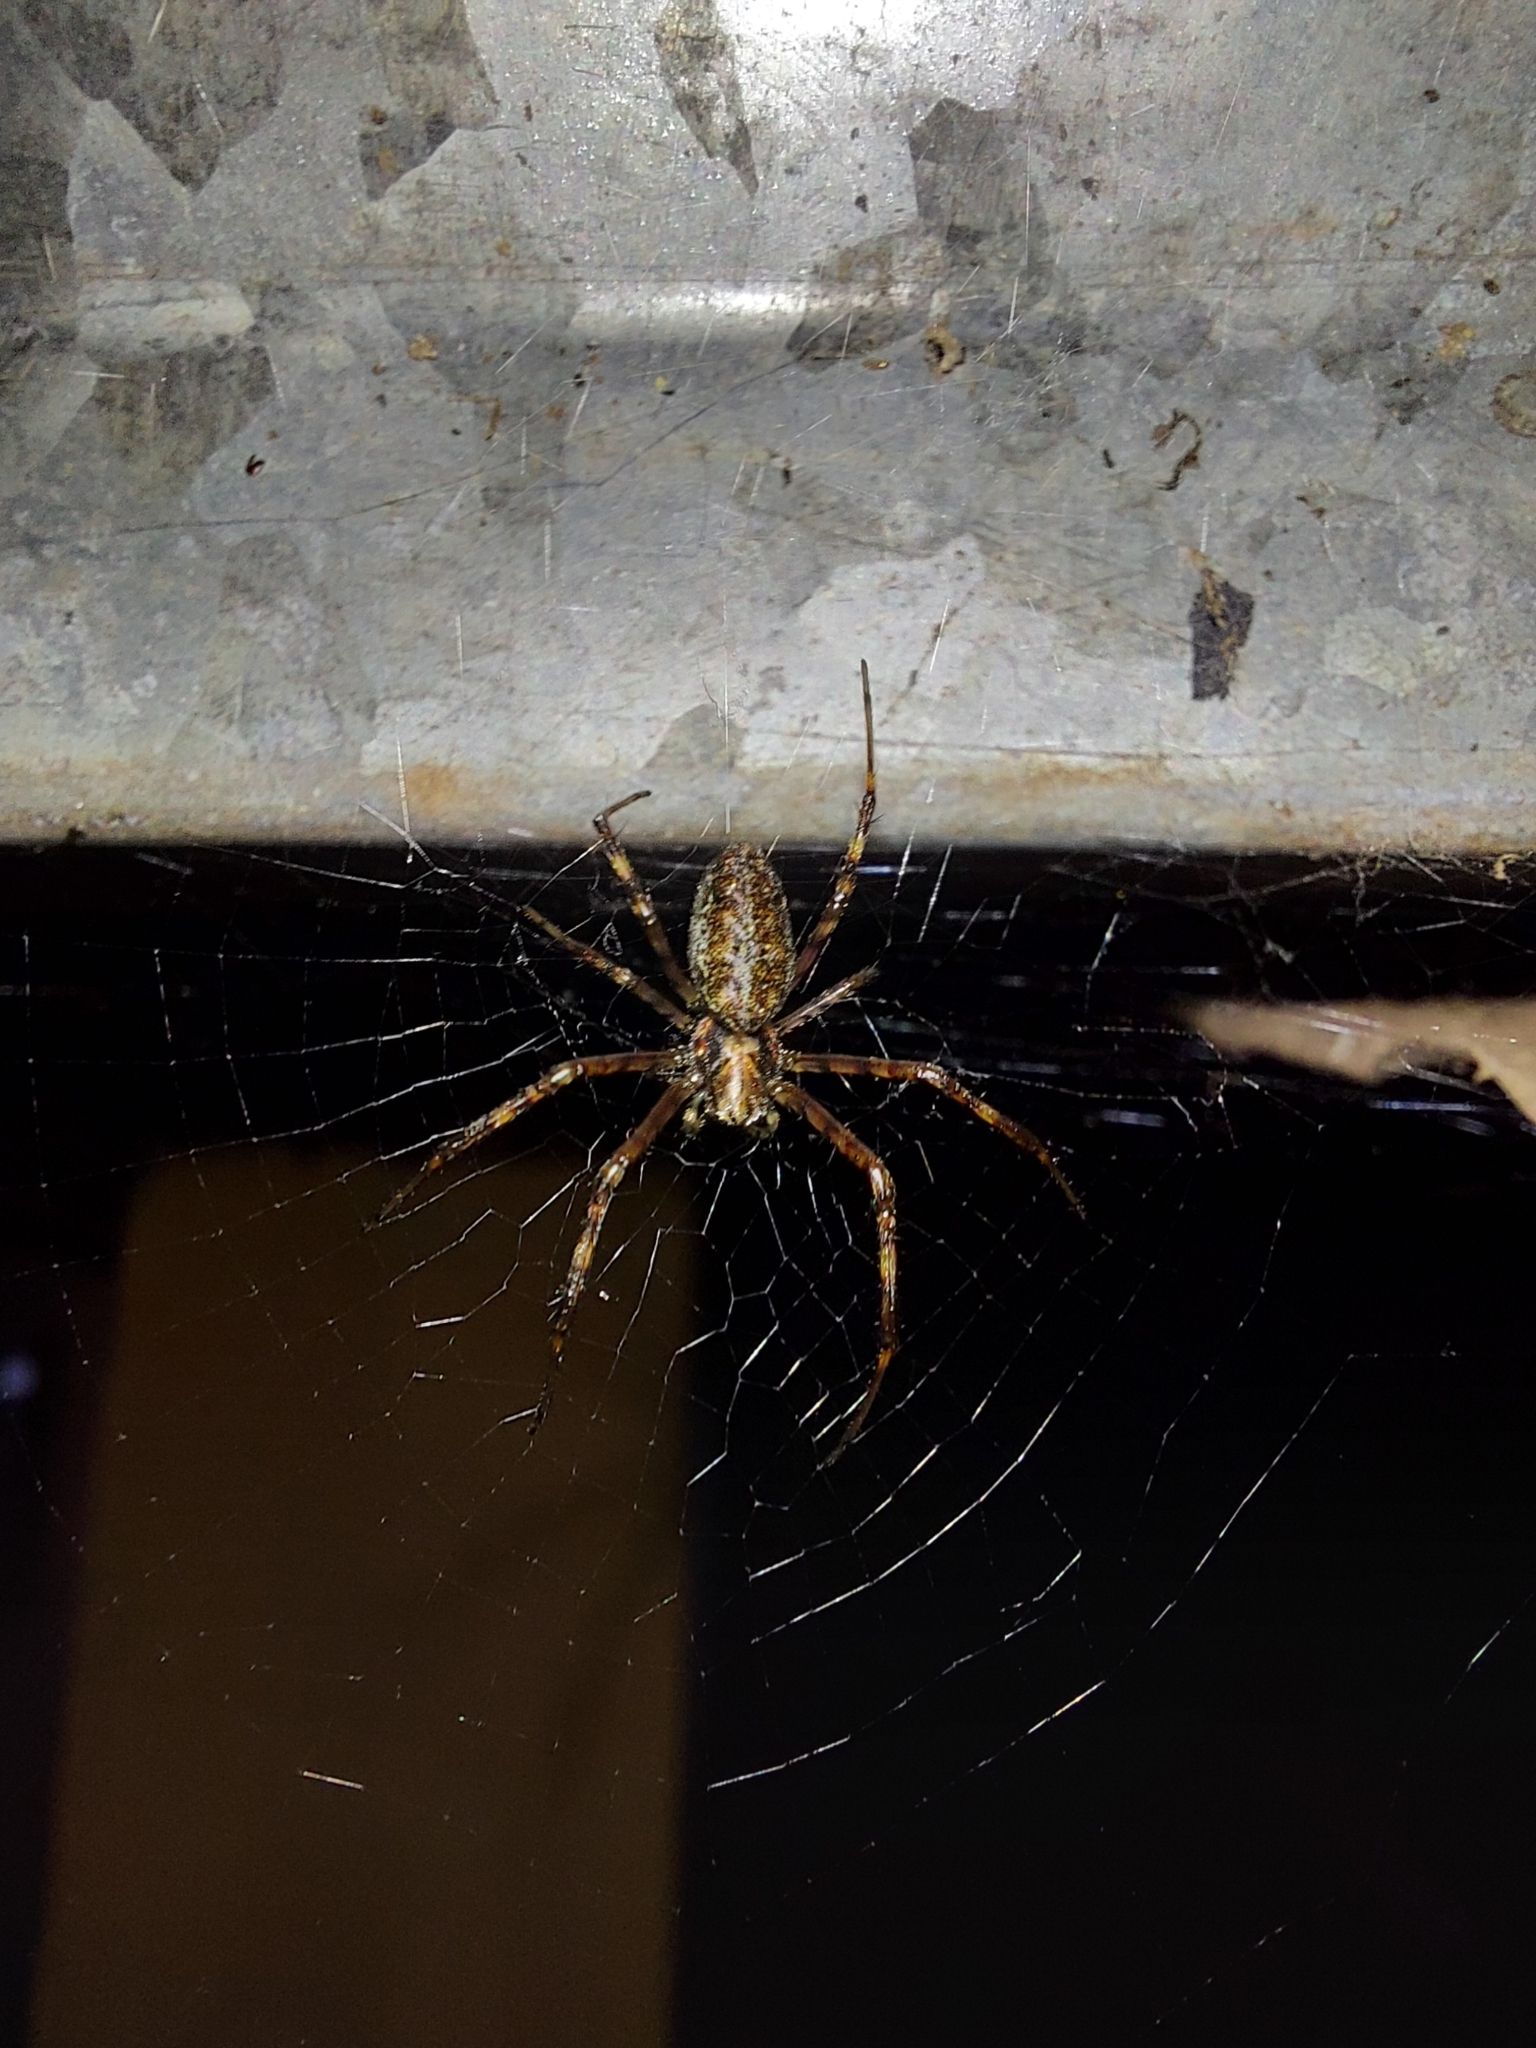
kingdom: Animalia
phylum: Arthropoda
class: Arachnida
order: Araneae
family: Araneidae
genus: Nephilingis
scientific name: Nephilingis cruentata
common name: African hermit spider
